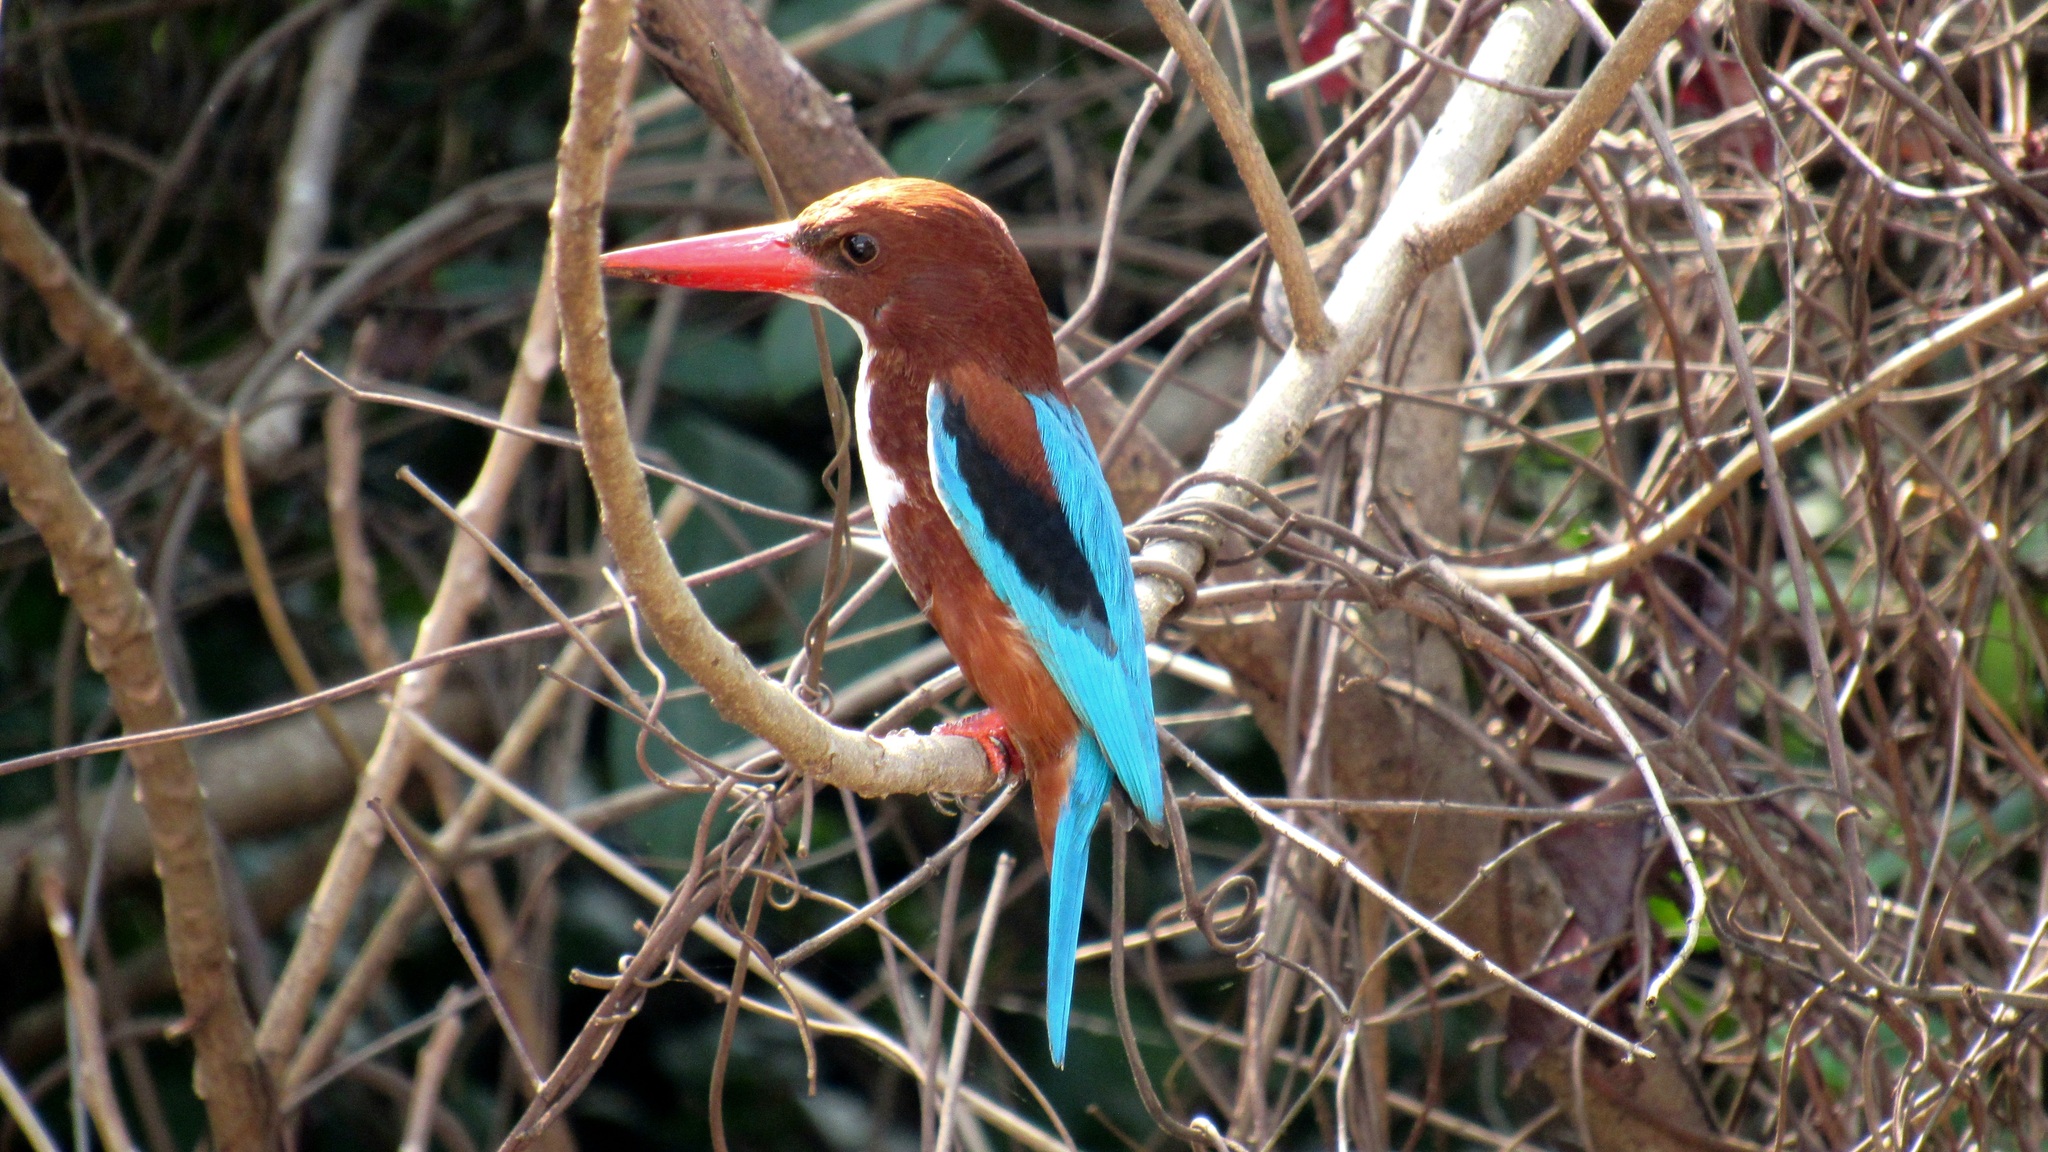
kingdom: Animalia
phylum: Chordata
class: Aves
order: Coraciiformes
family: Alcedinidae
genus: Halcyon
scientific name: Halcyon smyrnensis
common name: White-throated kingfisher
